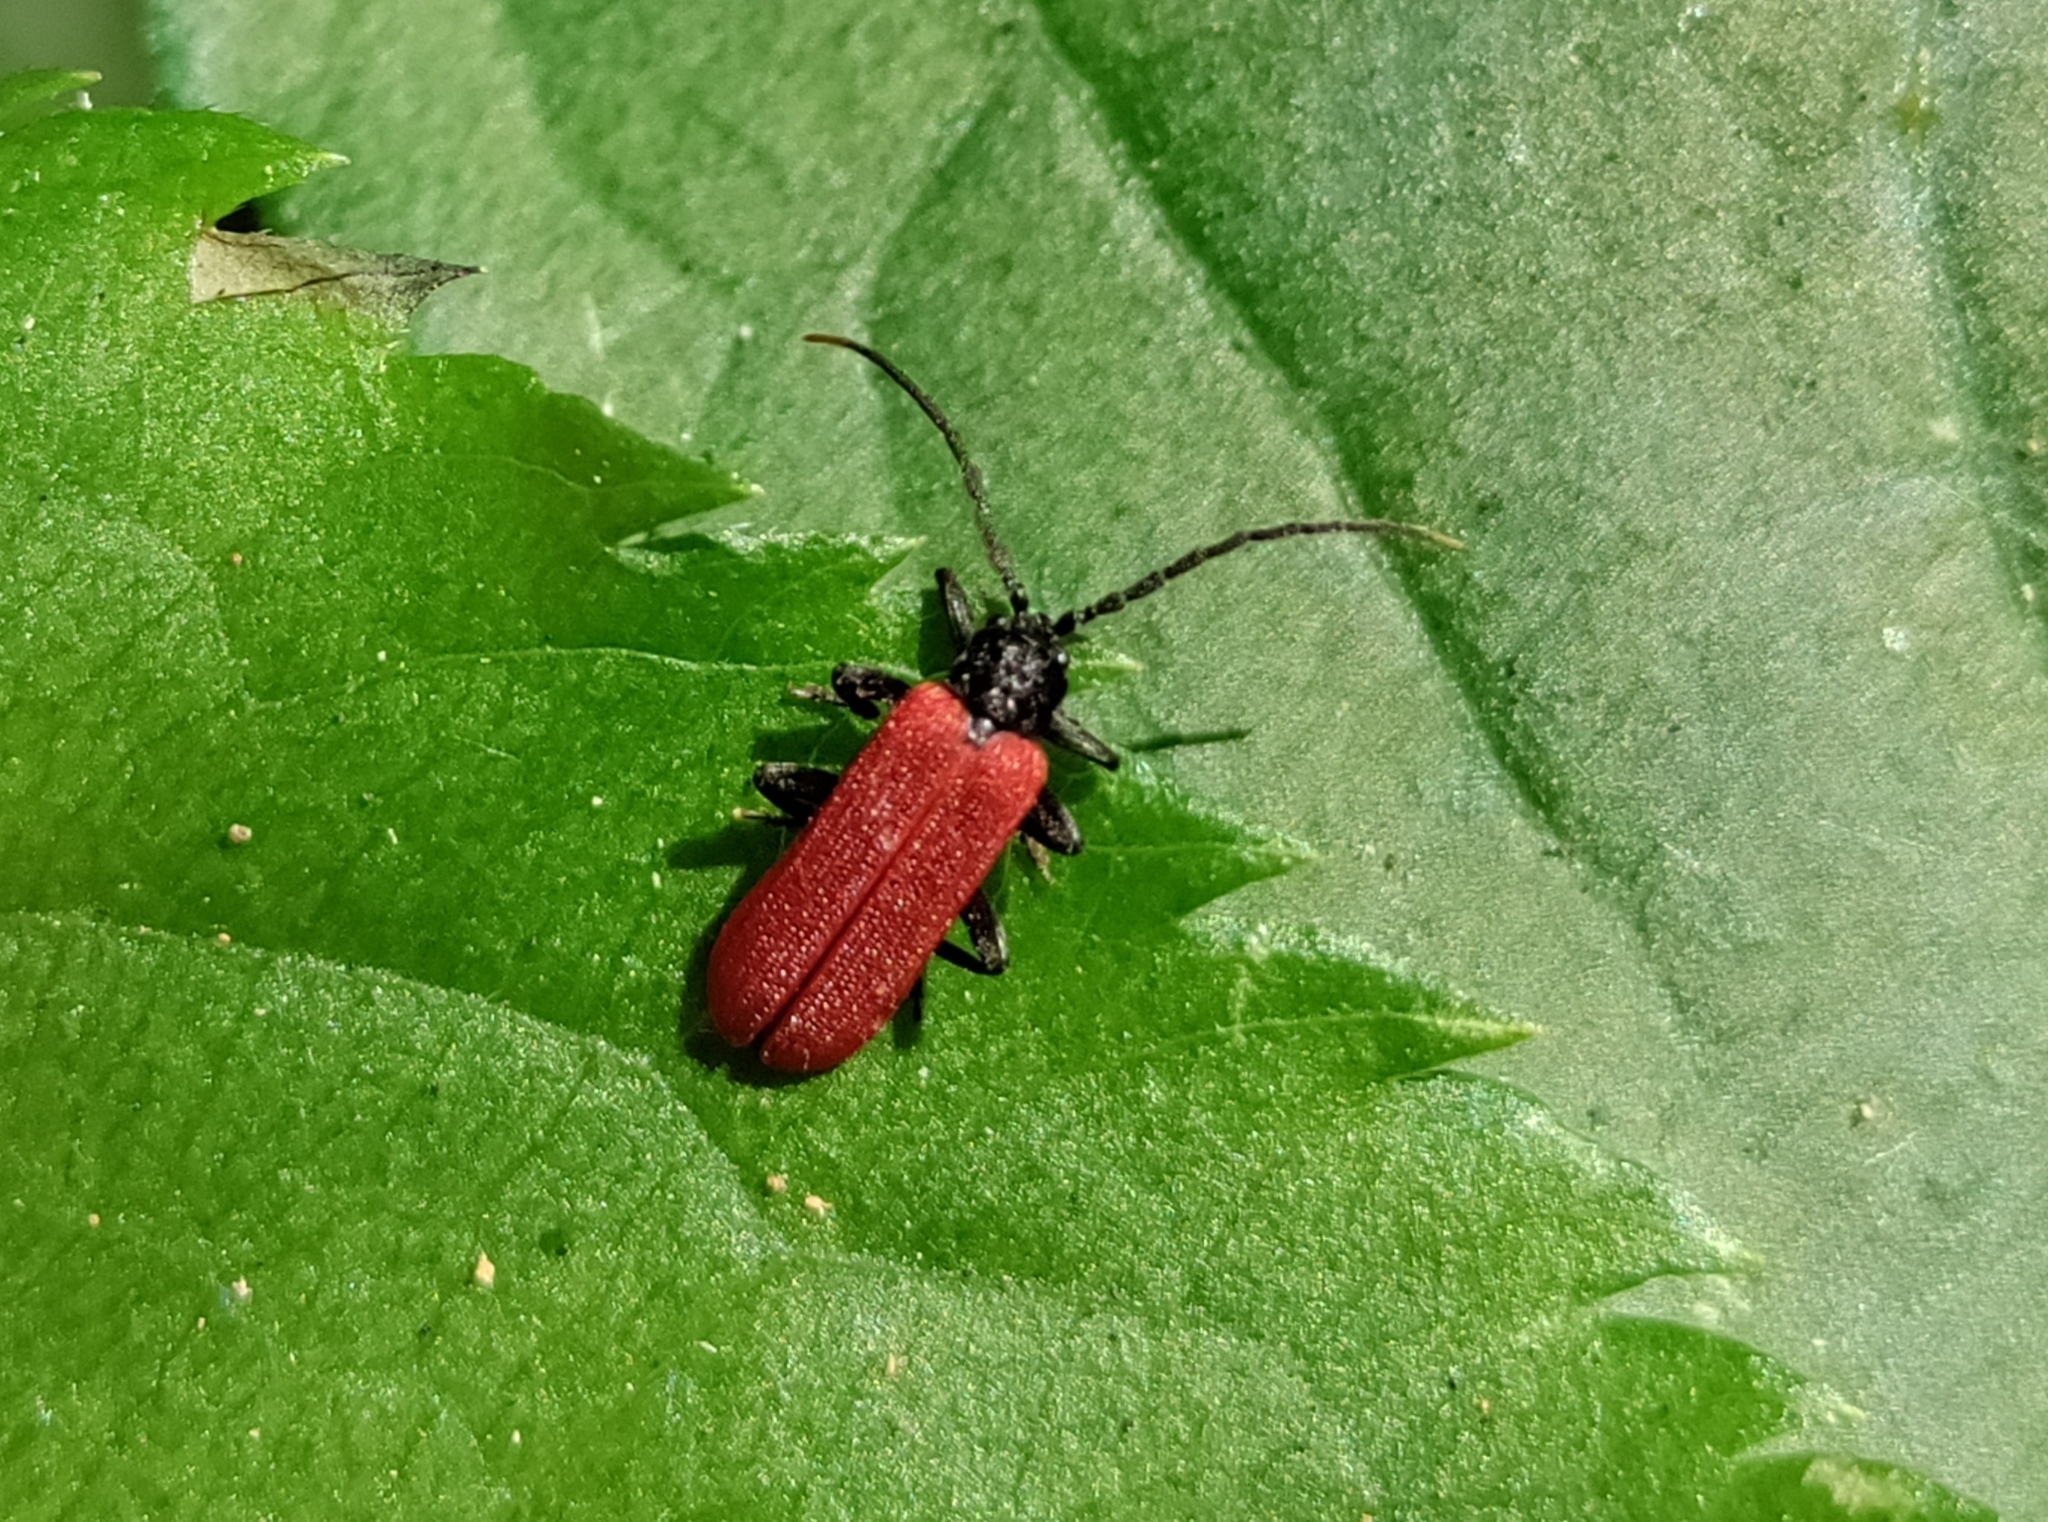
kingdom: Animalia
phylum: Arthropoda
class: Insecta
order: Coleoptera
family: Lycidae
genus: Platycis
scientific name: Platycis minutus
